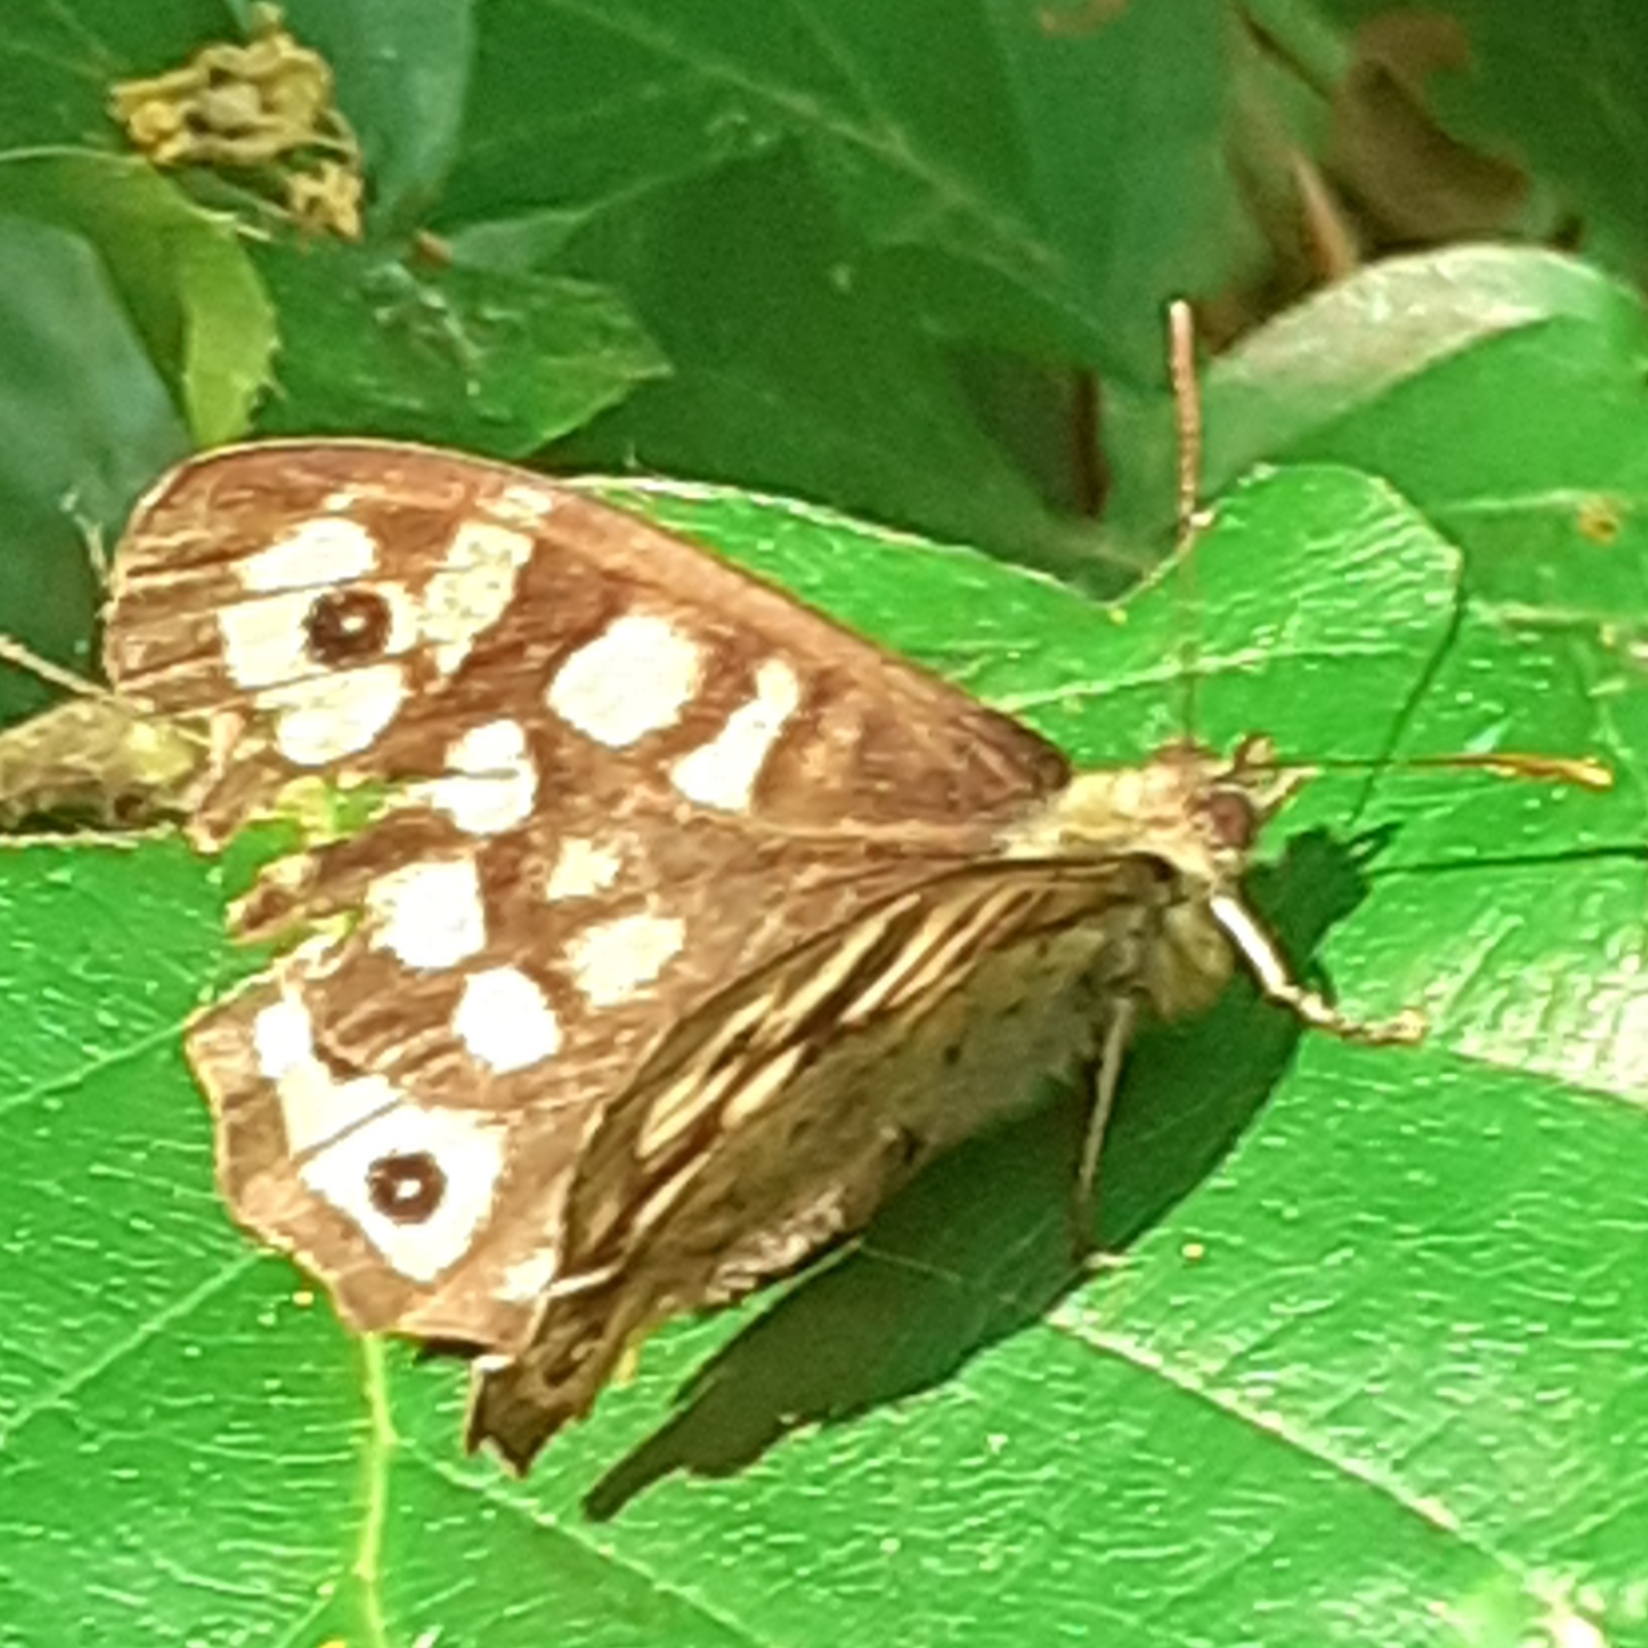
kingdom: Animalia
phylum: Arthropoda
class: Insecta
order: Lepidoptera
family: Nymphalidae
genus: Pararge
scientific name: Pararge aegeria
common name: Speckled wood
